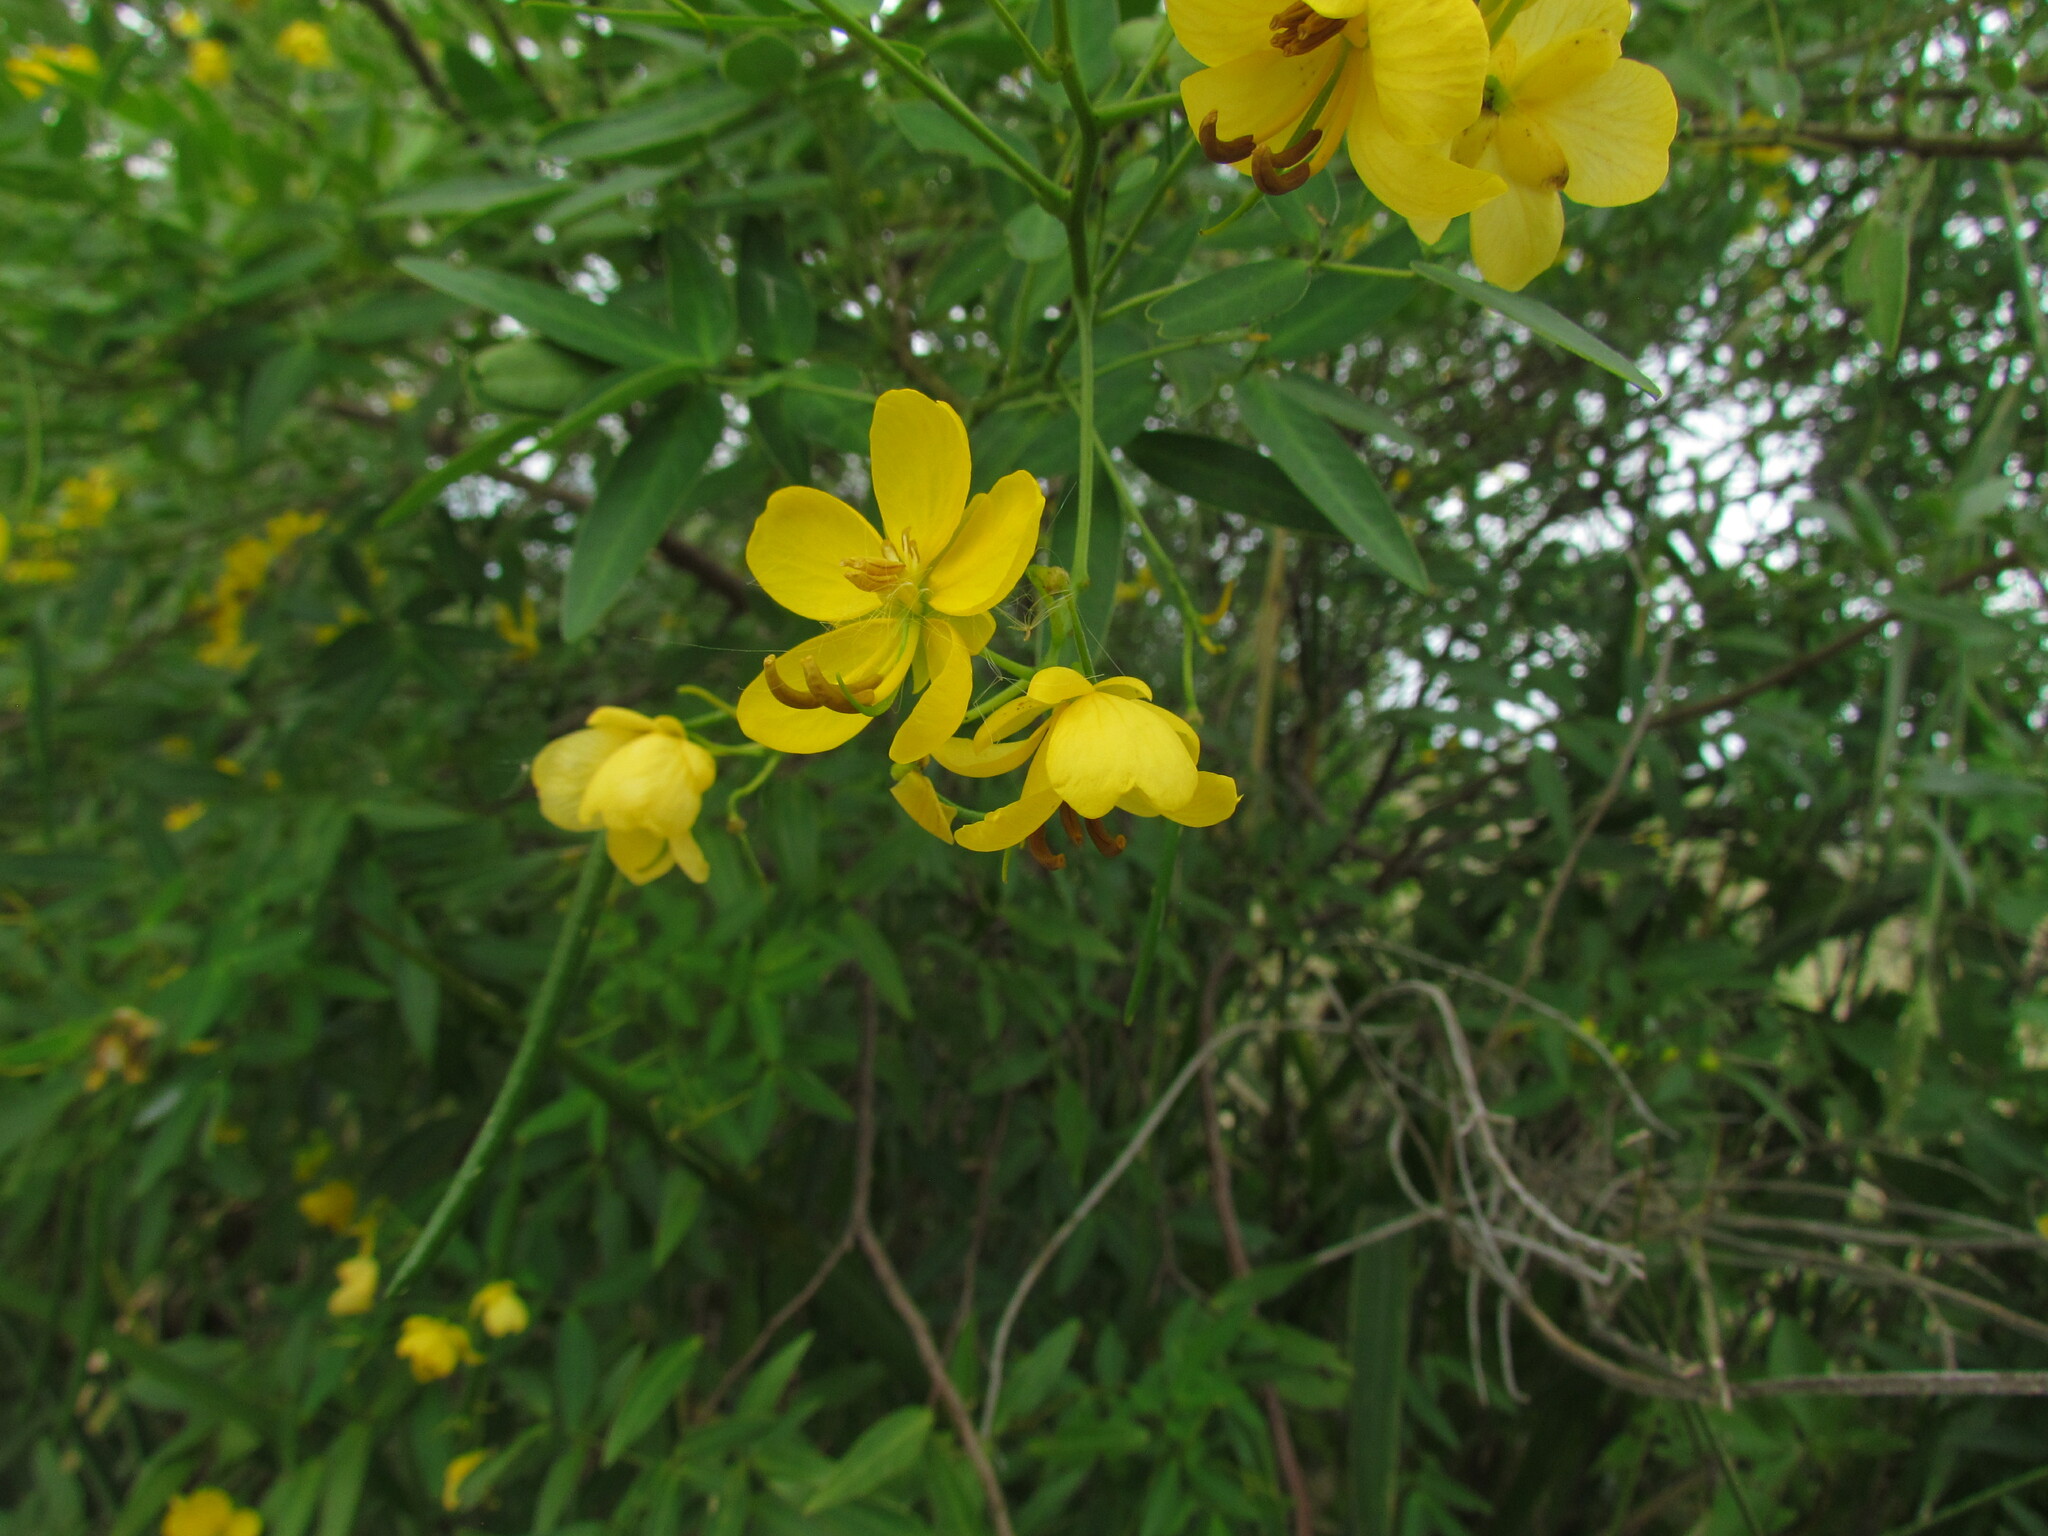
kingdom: Plantae
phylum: Tracheophyta
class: Magnoliopsida
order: Fabales
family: Fabaceae
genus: Senna
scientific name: Senna corymbosa
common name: Argentine senna
